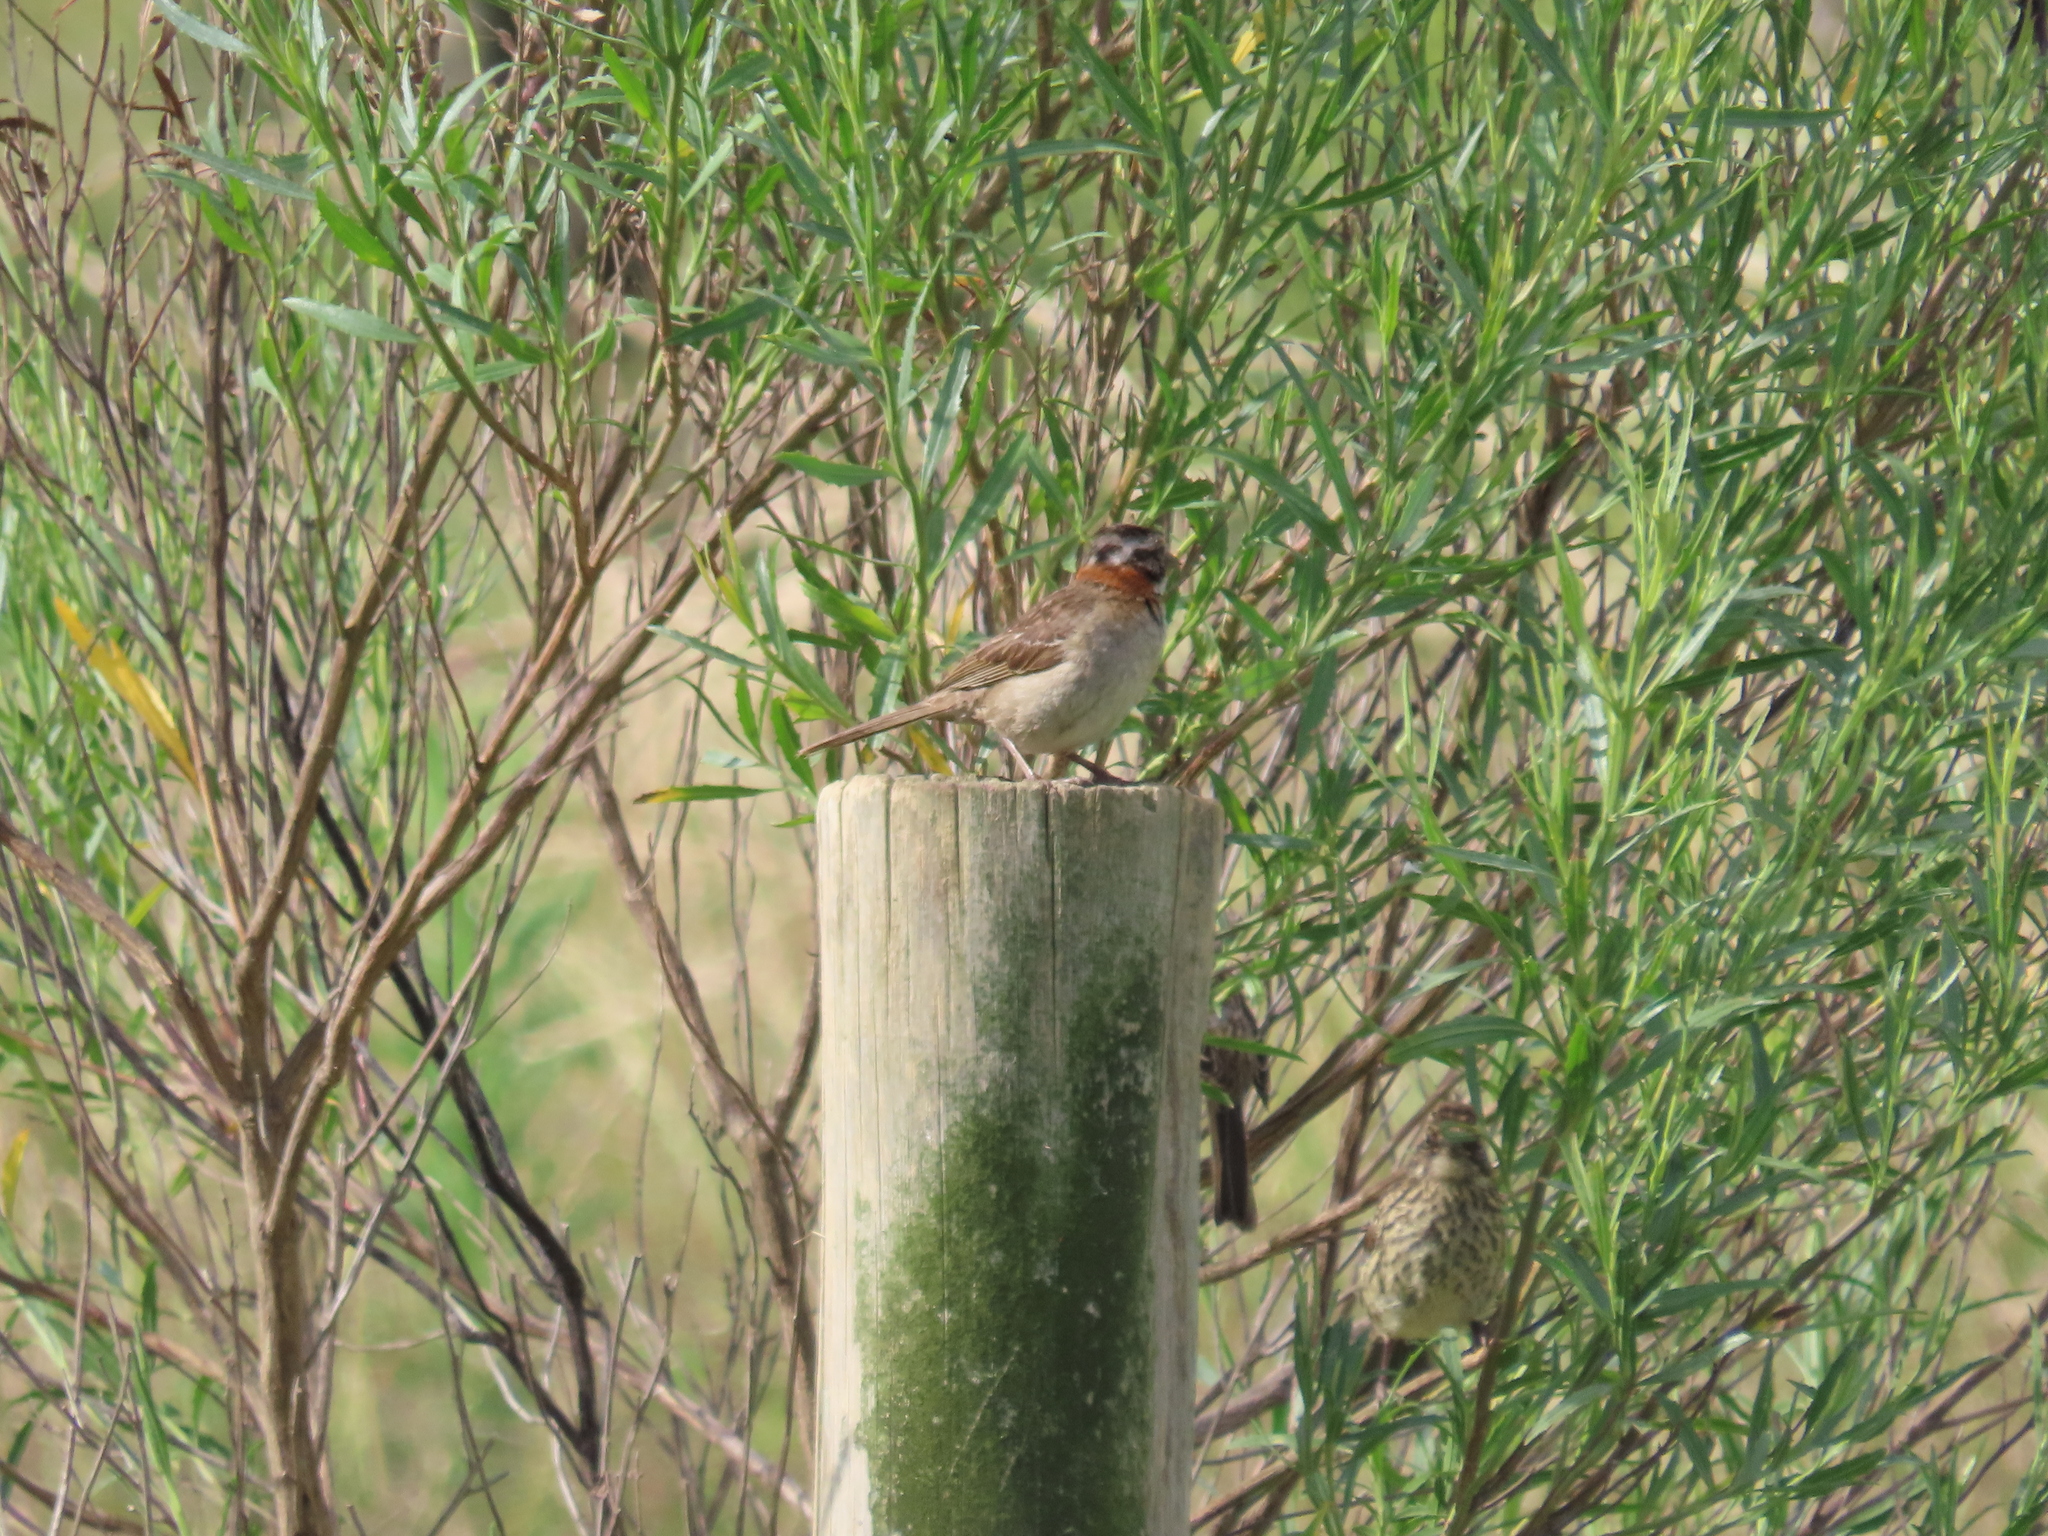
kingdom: Animalia
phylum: Chordata
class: Aves
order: Passeriformes
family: Passerellidae
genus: Zonotrichia
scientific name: Zonotrichia capensis
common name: Rufous-collared sparrow
